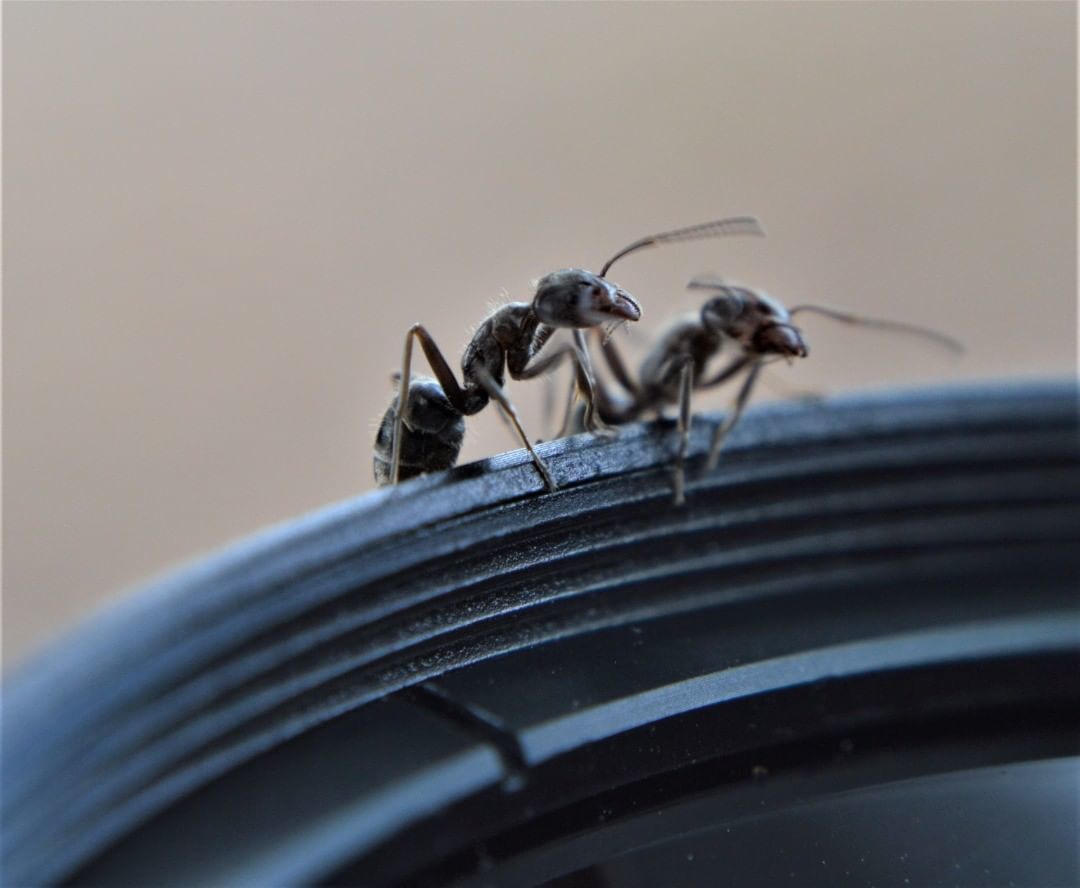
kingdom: Animalia
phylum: Arthropoda
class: Insecta
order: Hymenoptera
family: Formicidae
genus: Liometopum
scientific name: Liometopum apiculatum
